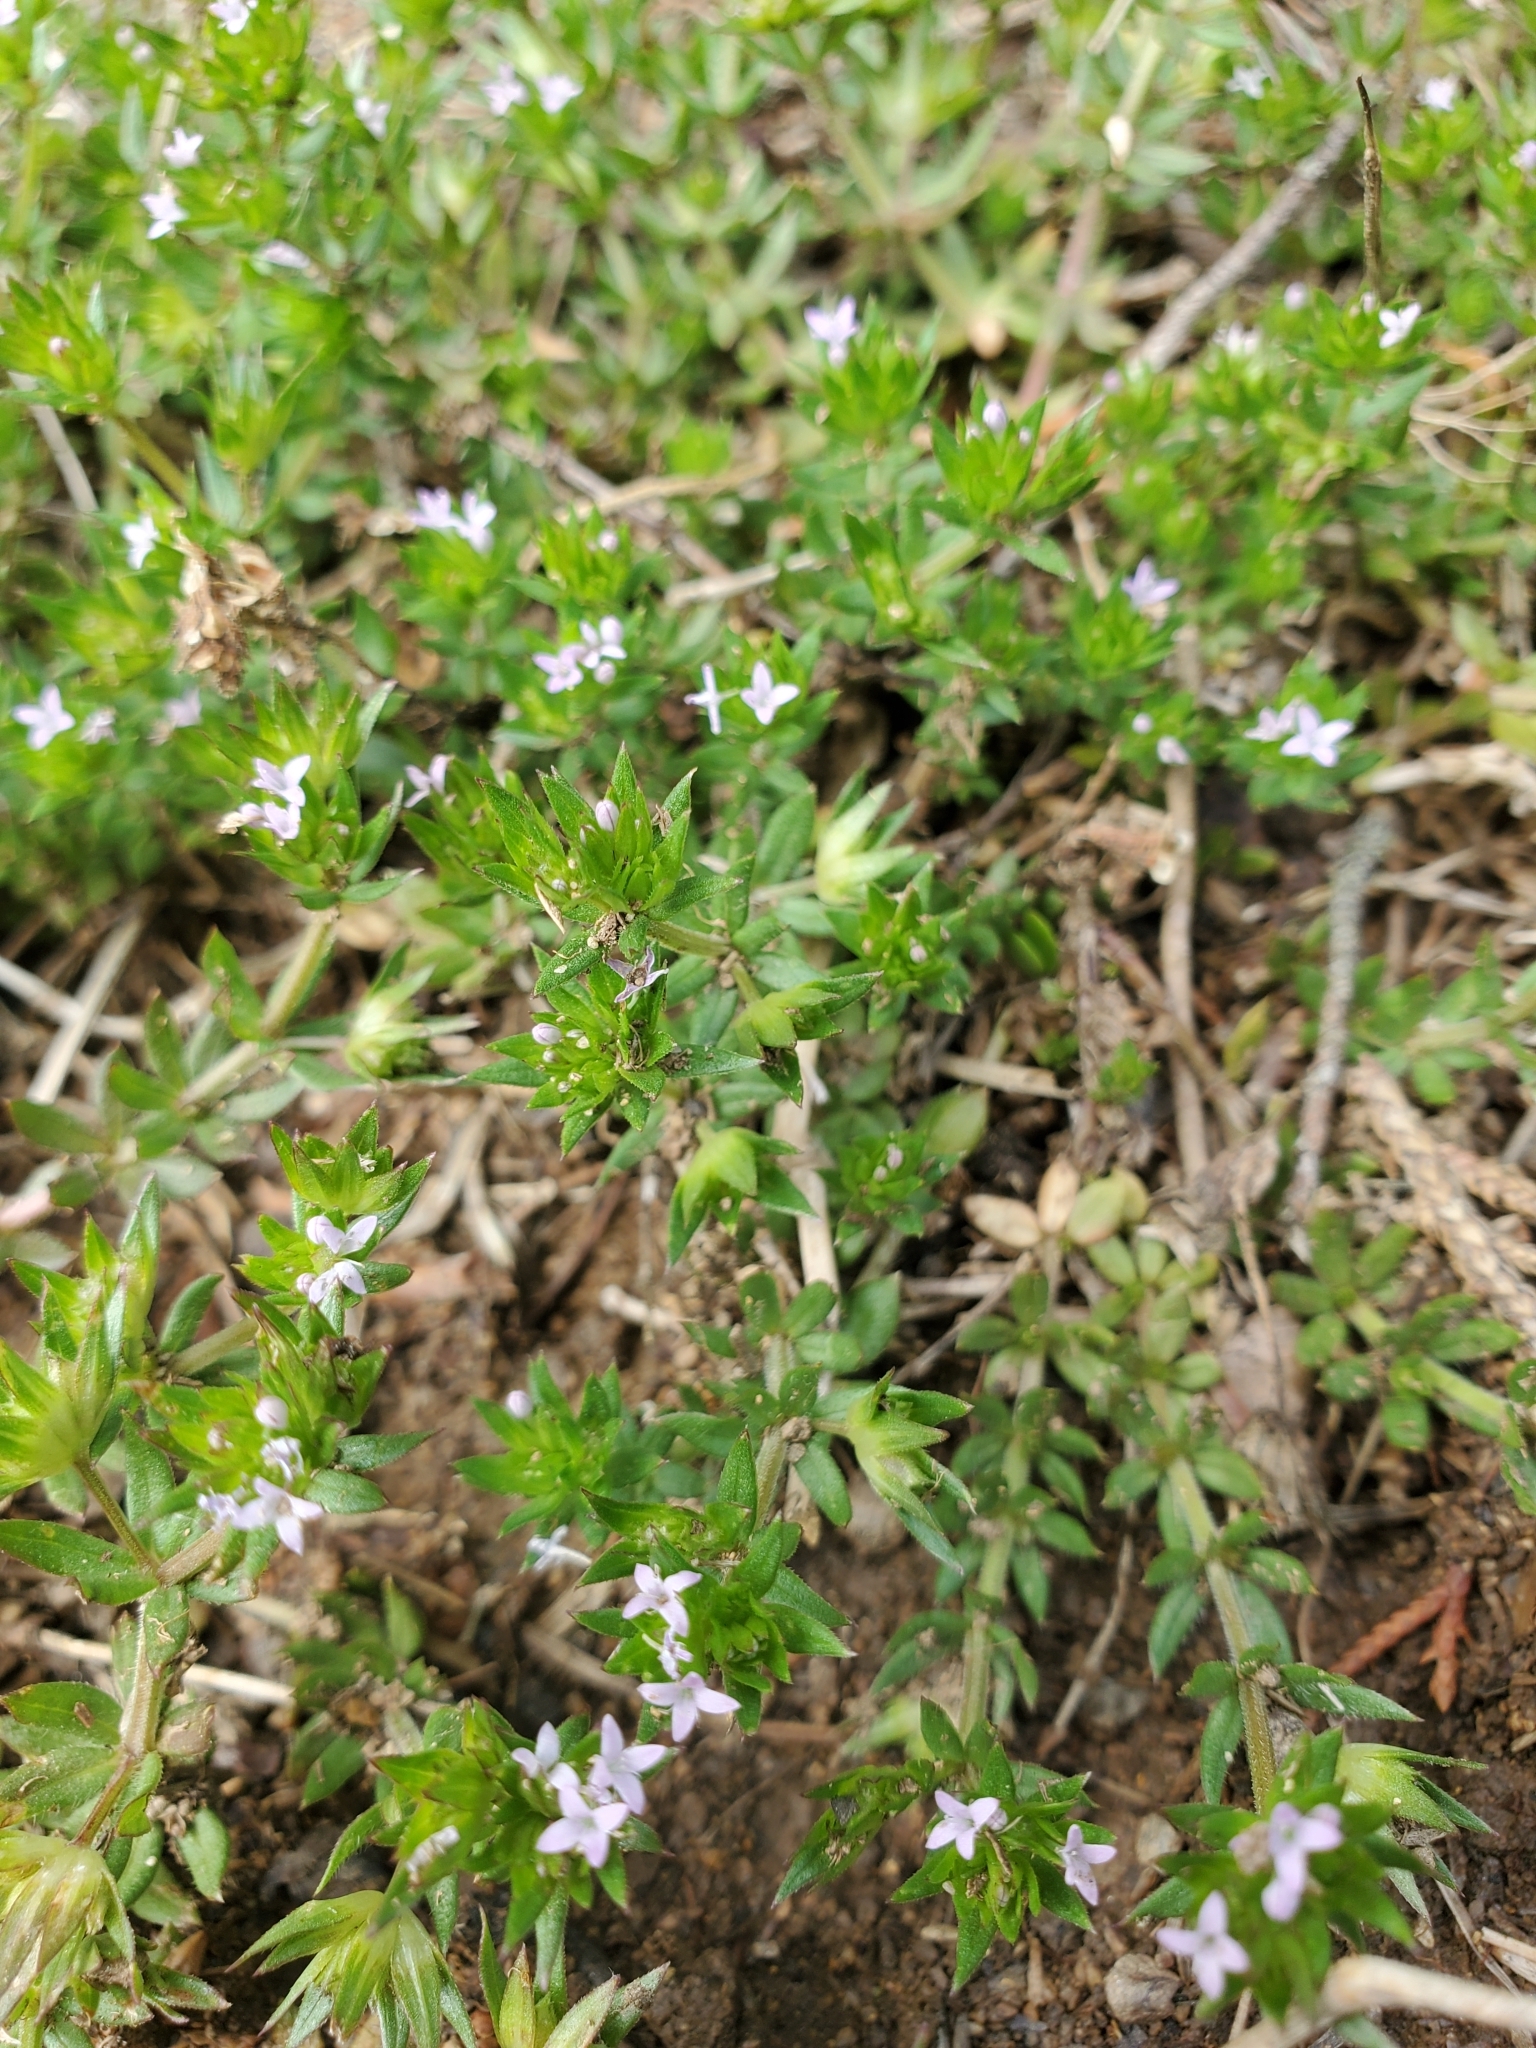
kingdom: Plantae
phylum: Tracheophyta
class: Magnoliopsida
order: Gentianales
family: Rubiaceae
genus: Sherardia
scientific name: Sherardia arvensis
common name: Field madder
